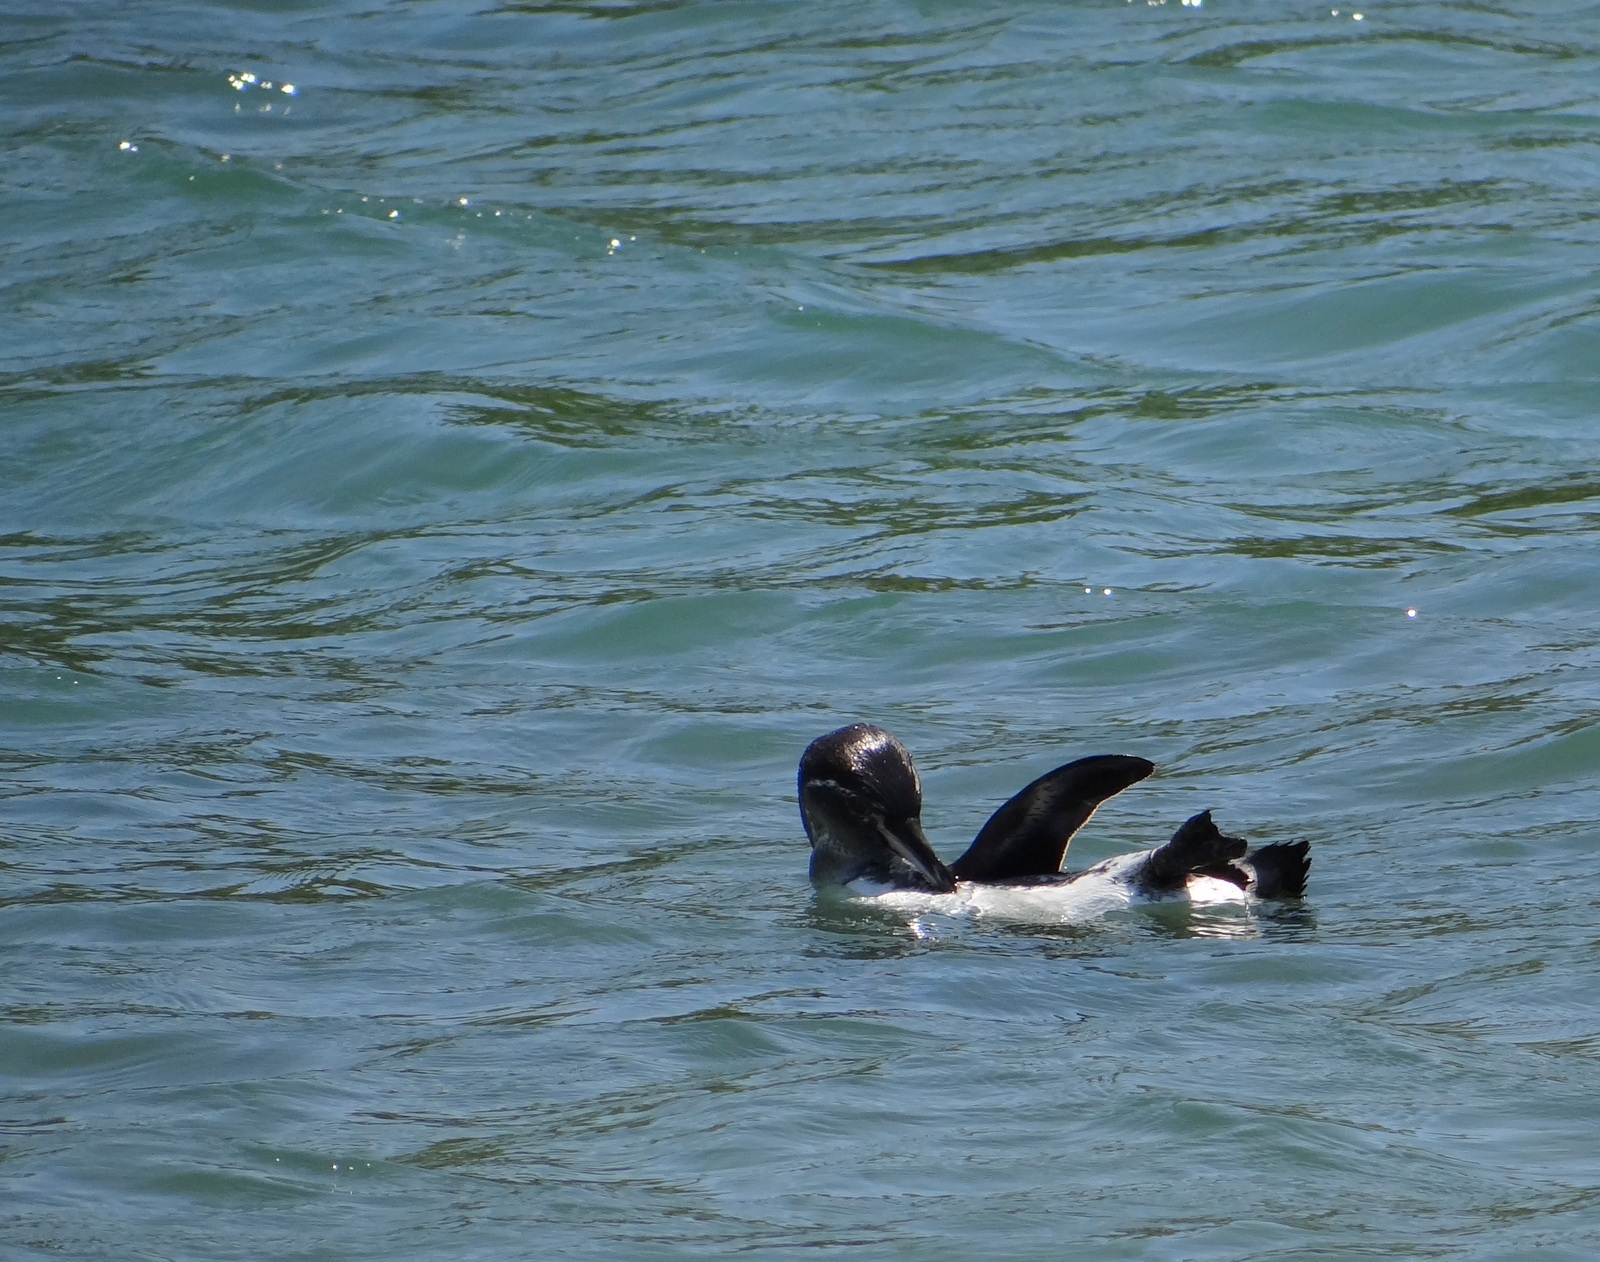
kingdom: Animalia
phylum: Chordata
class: Aves
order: Sphenisciformes
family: Spheniscidae
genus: Spheniscus
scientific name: Spheniscus mendiculus
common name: Galapagos penguin
